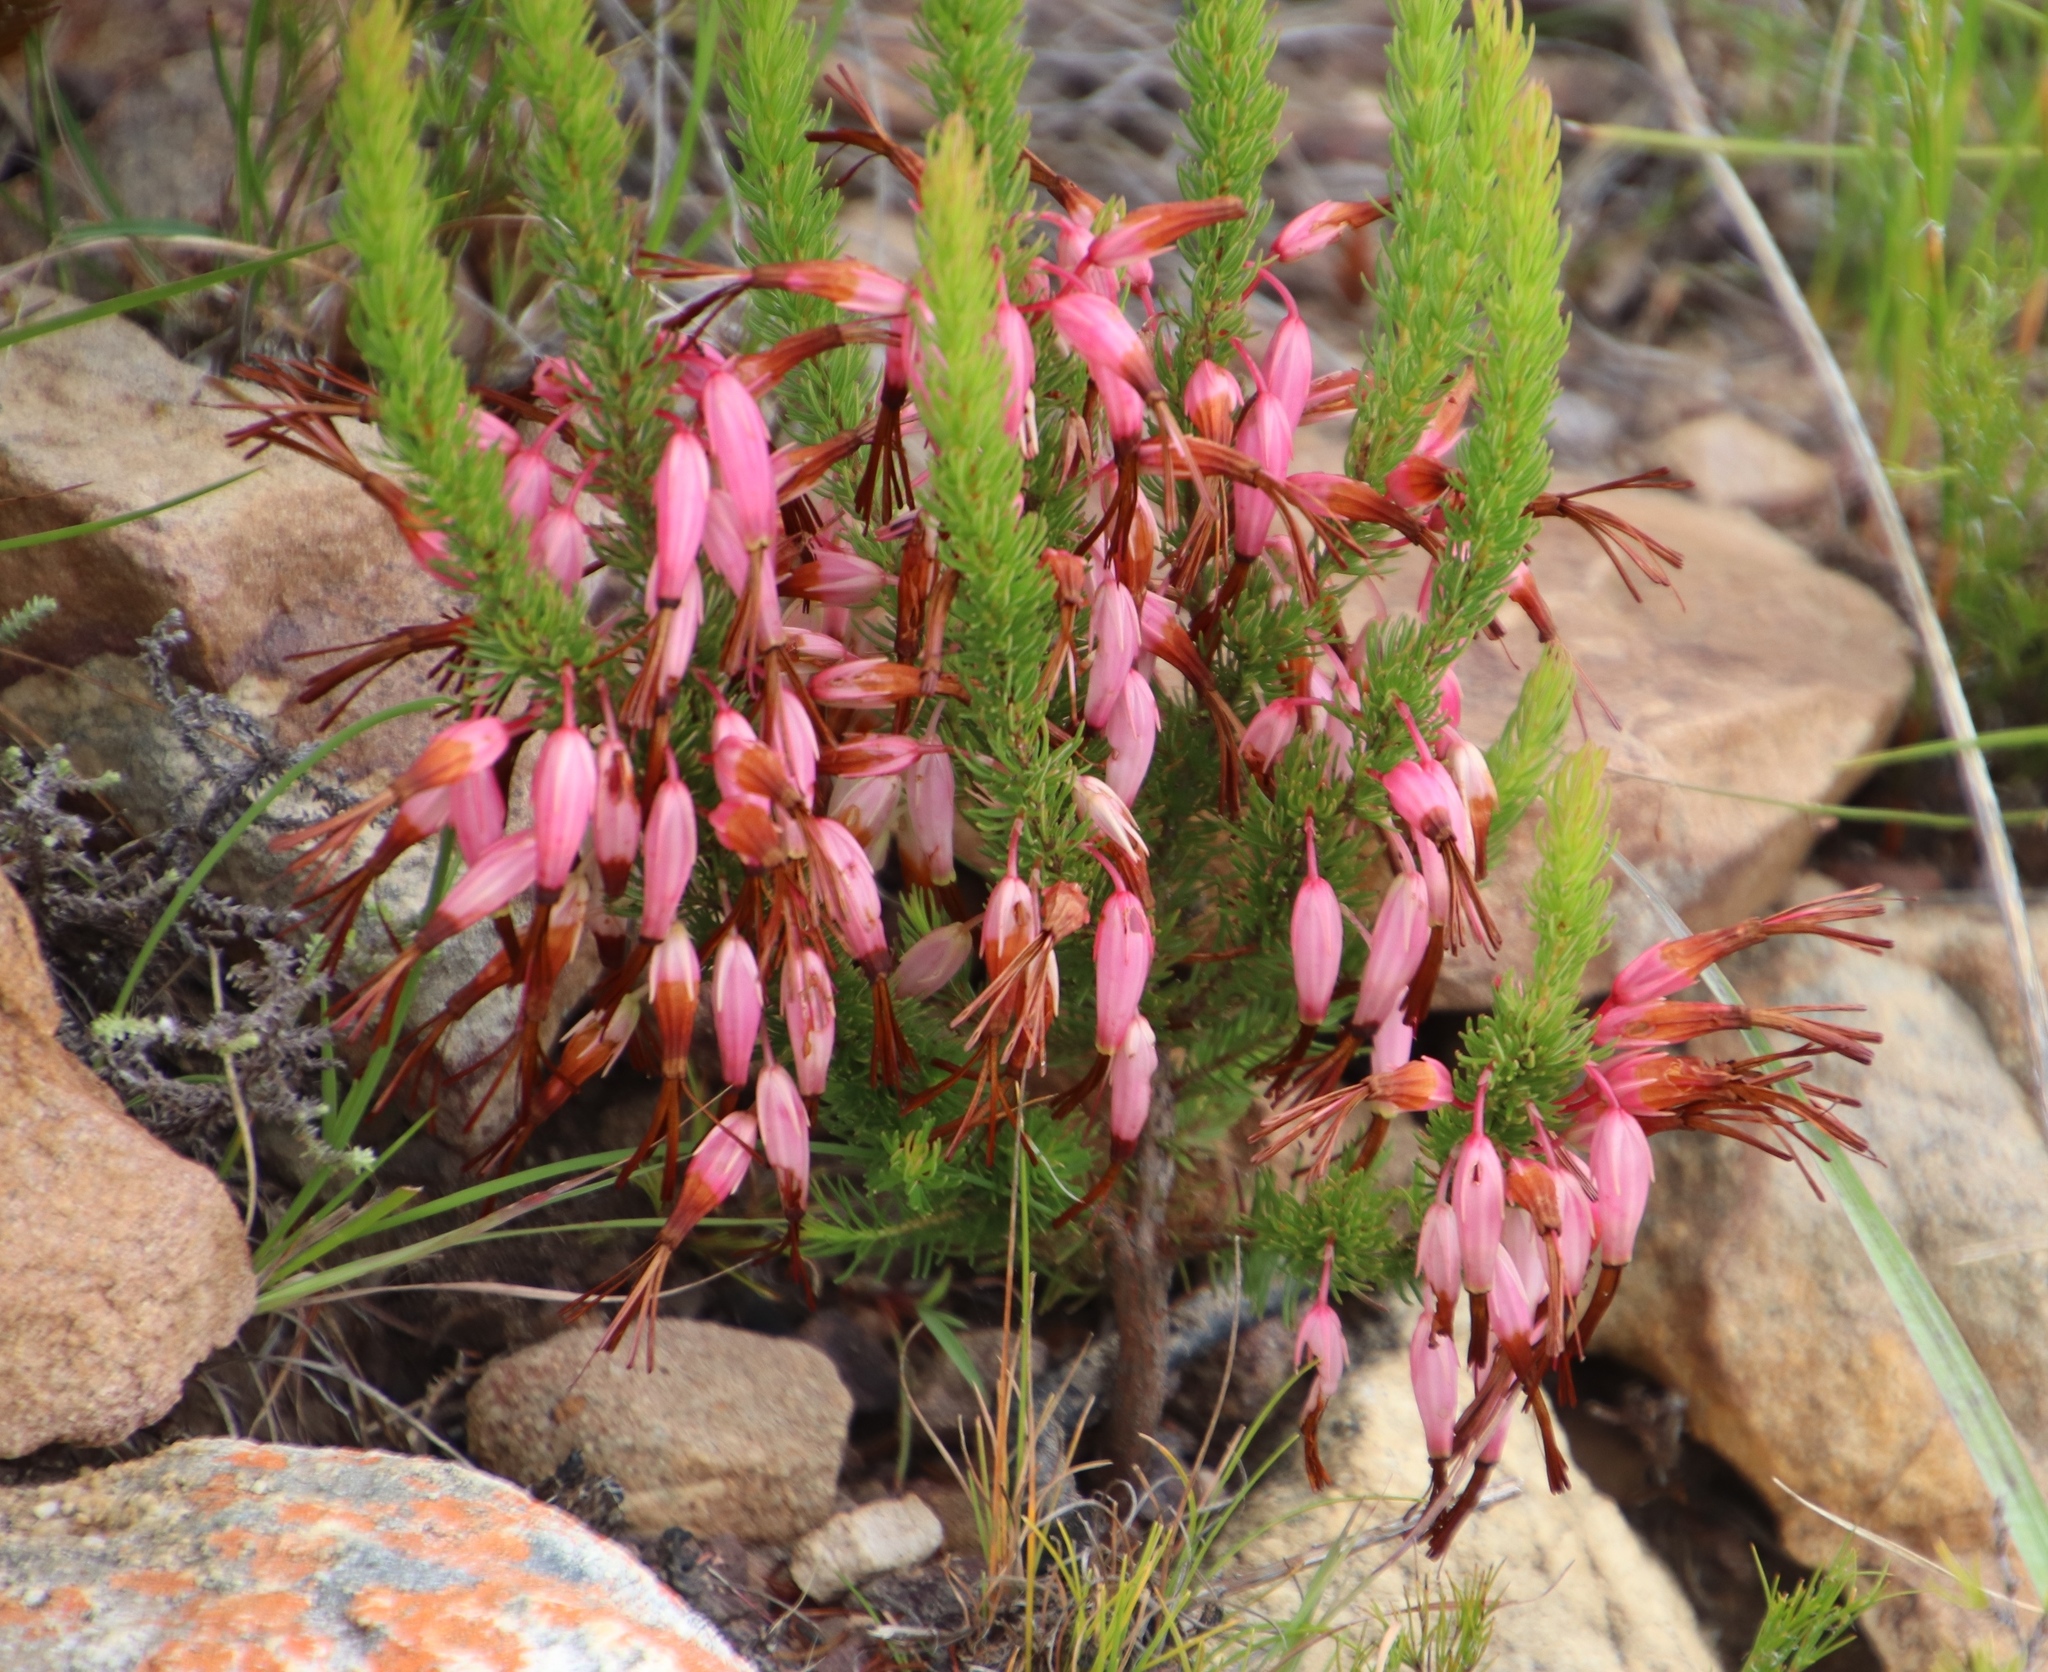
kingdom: Plantae
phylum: Tracheophyta
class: Magnoliopsida
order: Ericales
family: Ericaceae
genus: Erica
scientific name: Erica plukenetii
